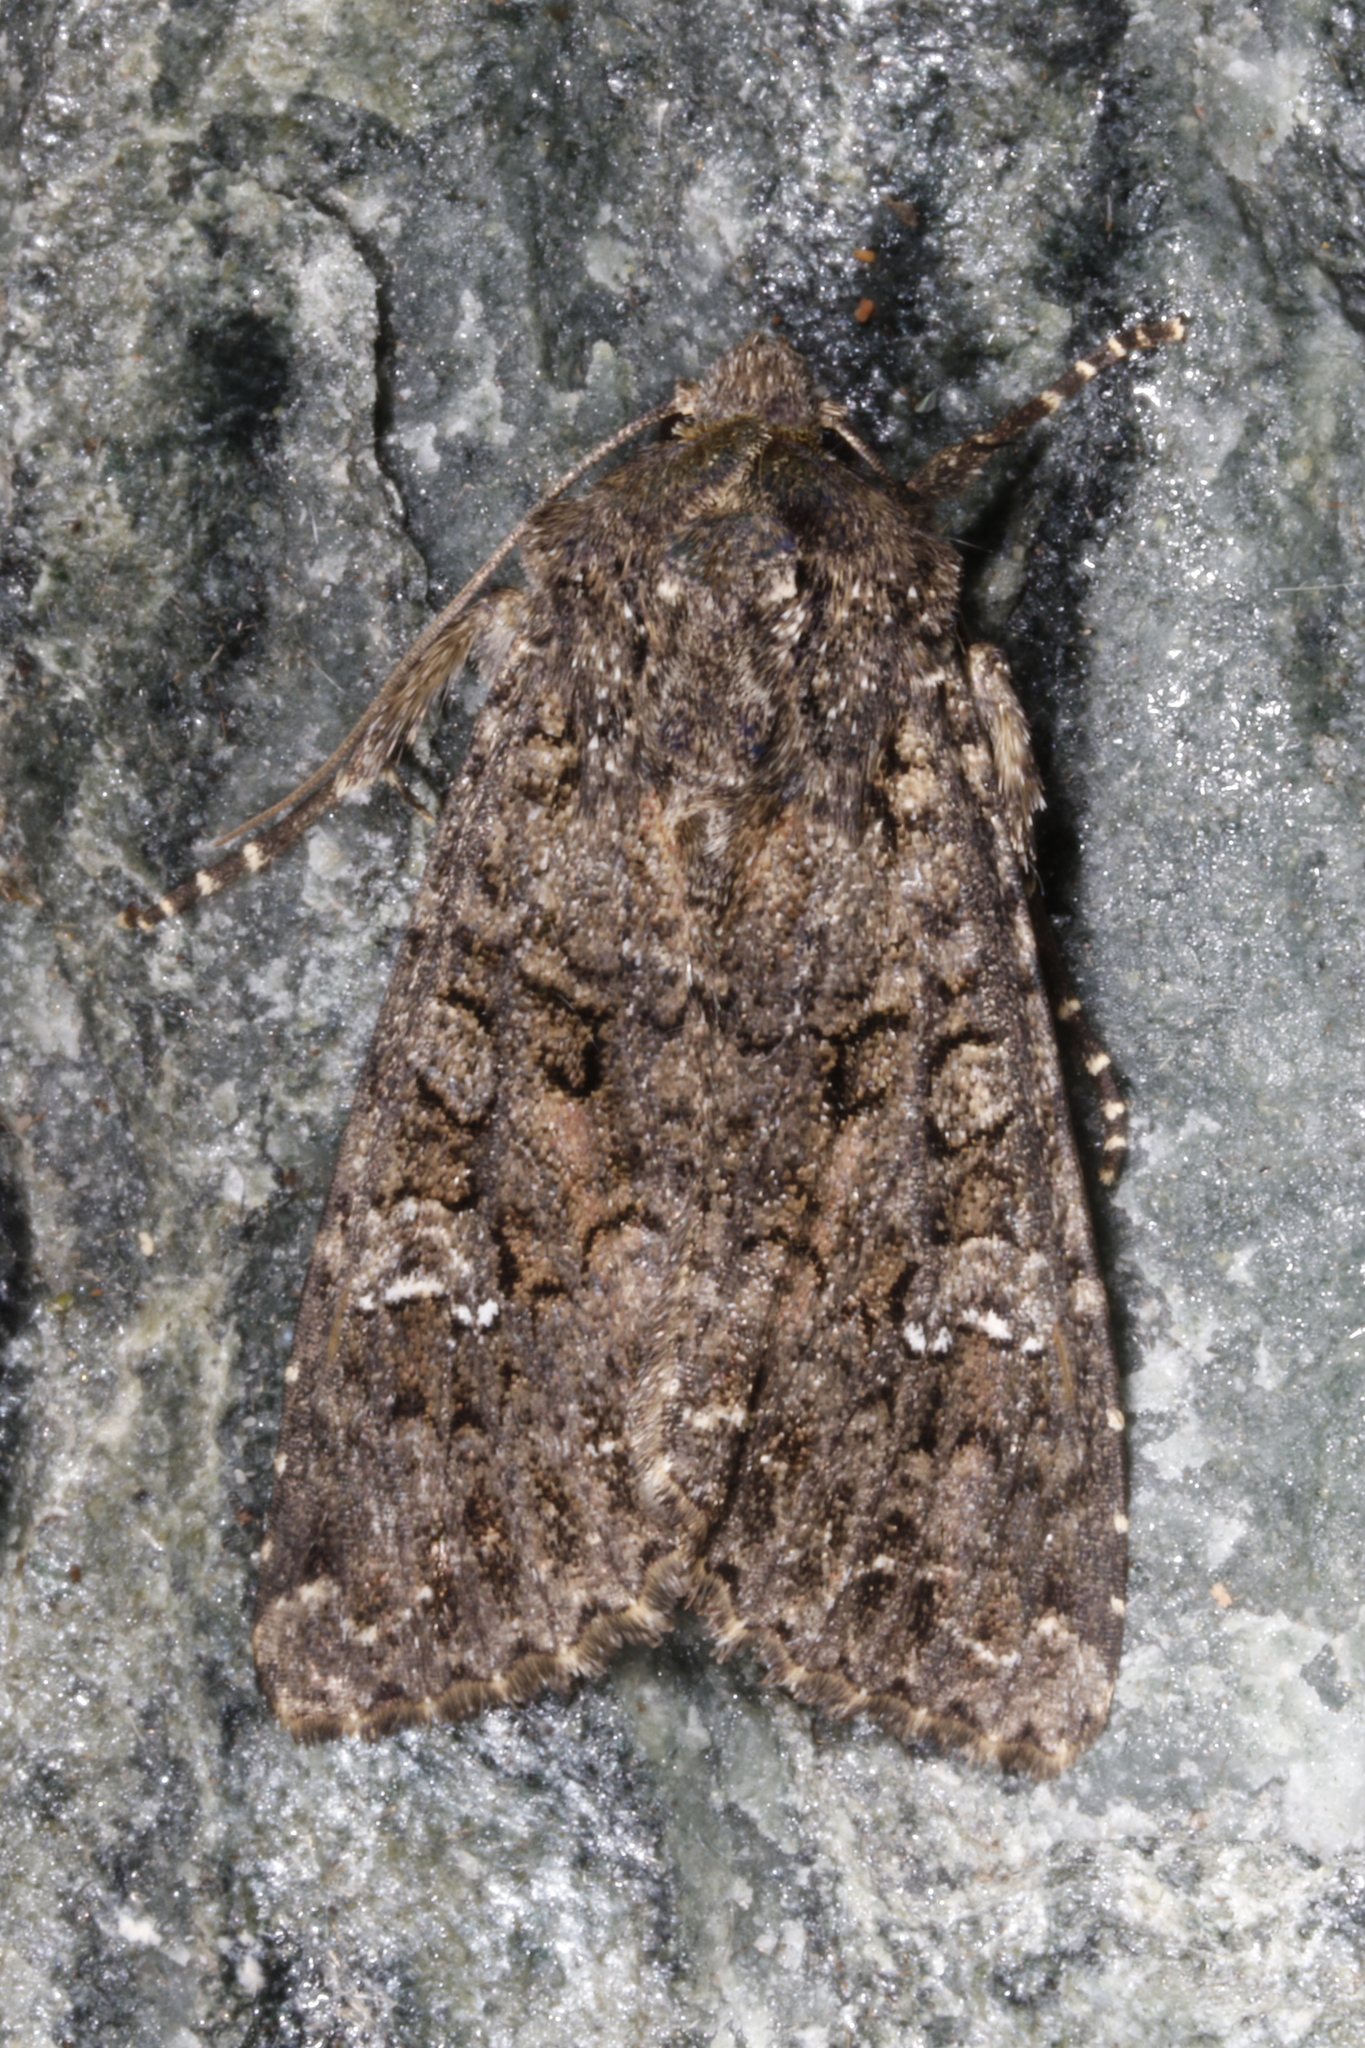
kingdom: Animalia
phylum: Arthropoda
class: Insecta
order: Lepidoptera
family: Noctuidae
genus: Mamestra
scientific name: Mamestra brassicae
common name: Cabbage moth
